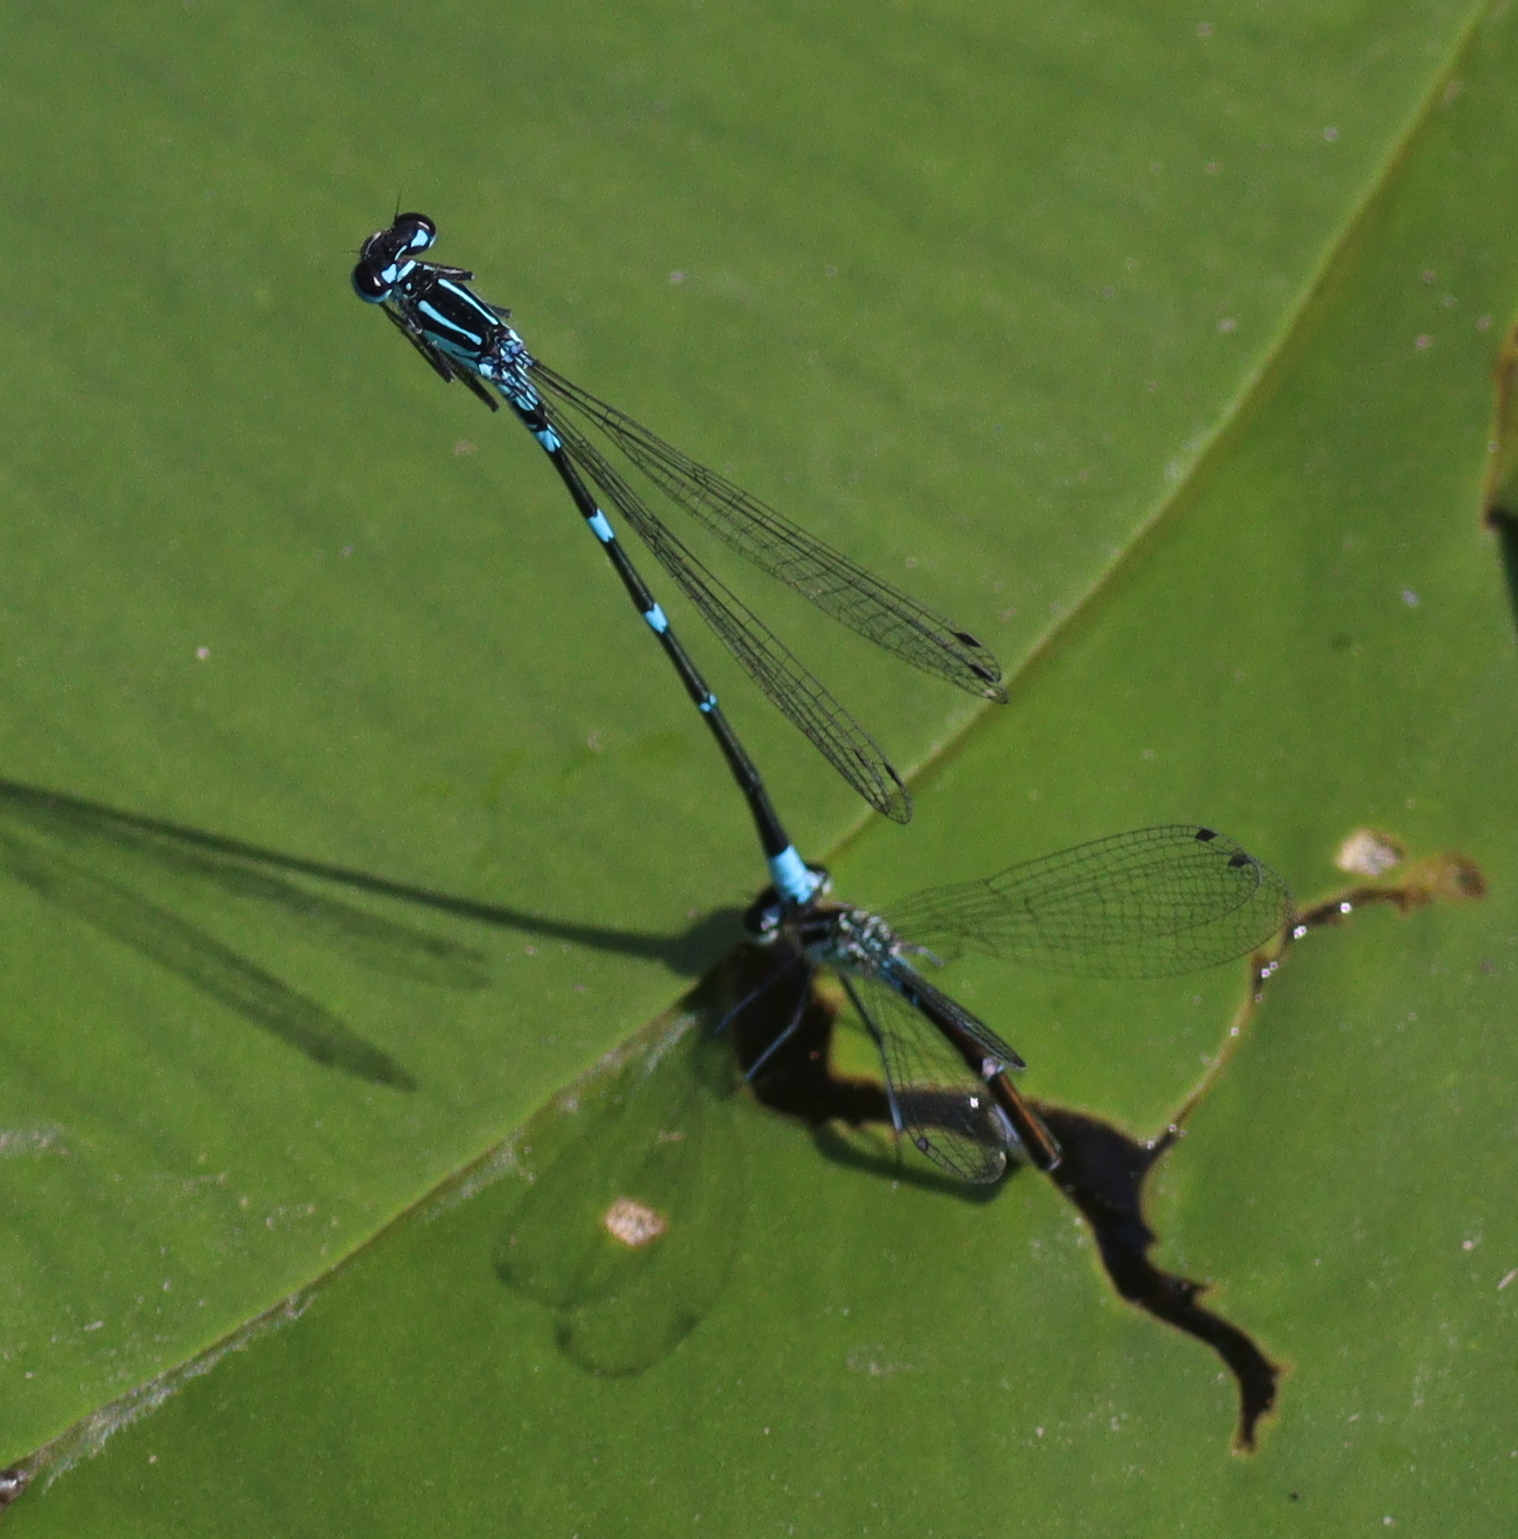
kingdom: Animalia
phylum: Arthropoda
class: Insecta
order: Odonata
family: Coenagrionidae
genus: Coenagrion
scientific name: Coenagrion pulchellum
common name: Variable bluet
